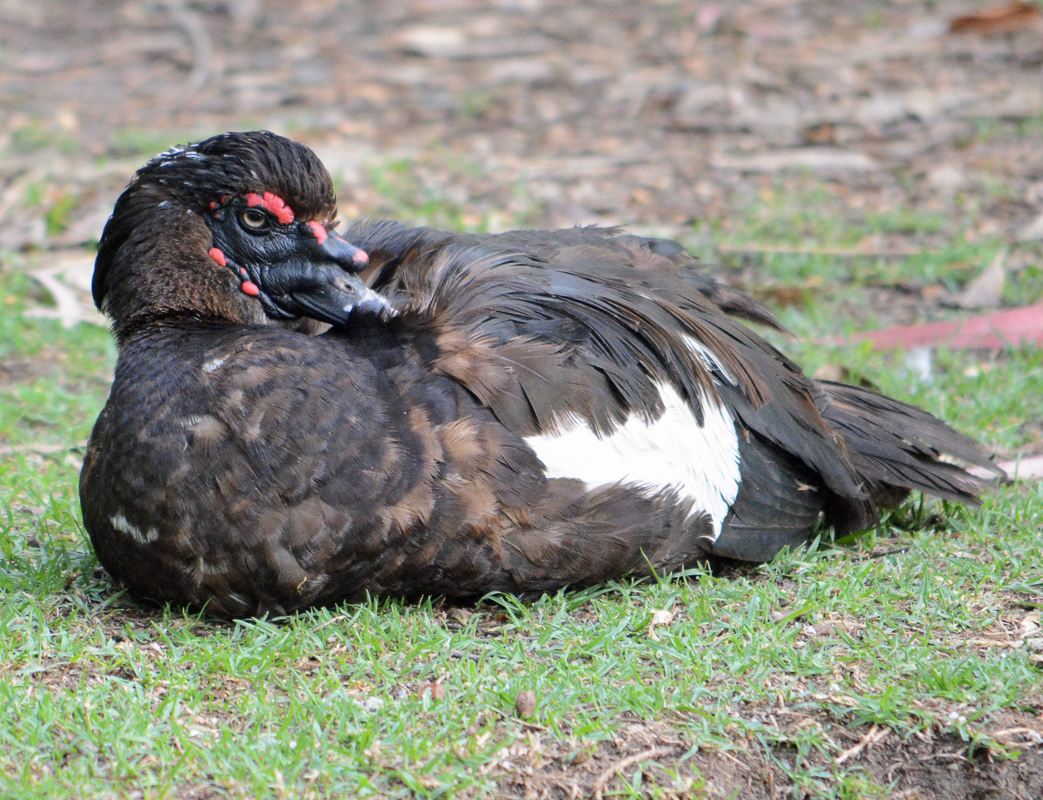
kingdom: Animalia
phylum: Chordata
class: Aves
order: Anseriformes
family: Anatidae
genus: Cairina
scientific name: Cairina moschata
